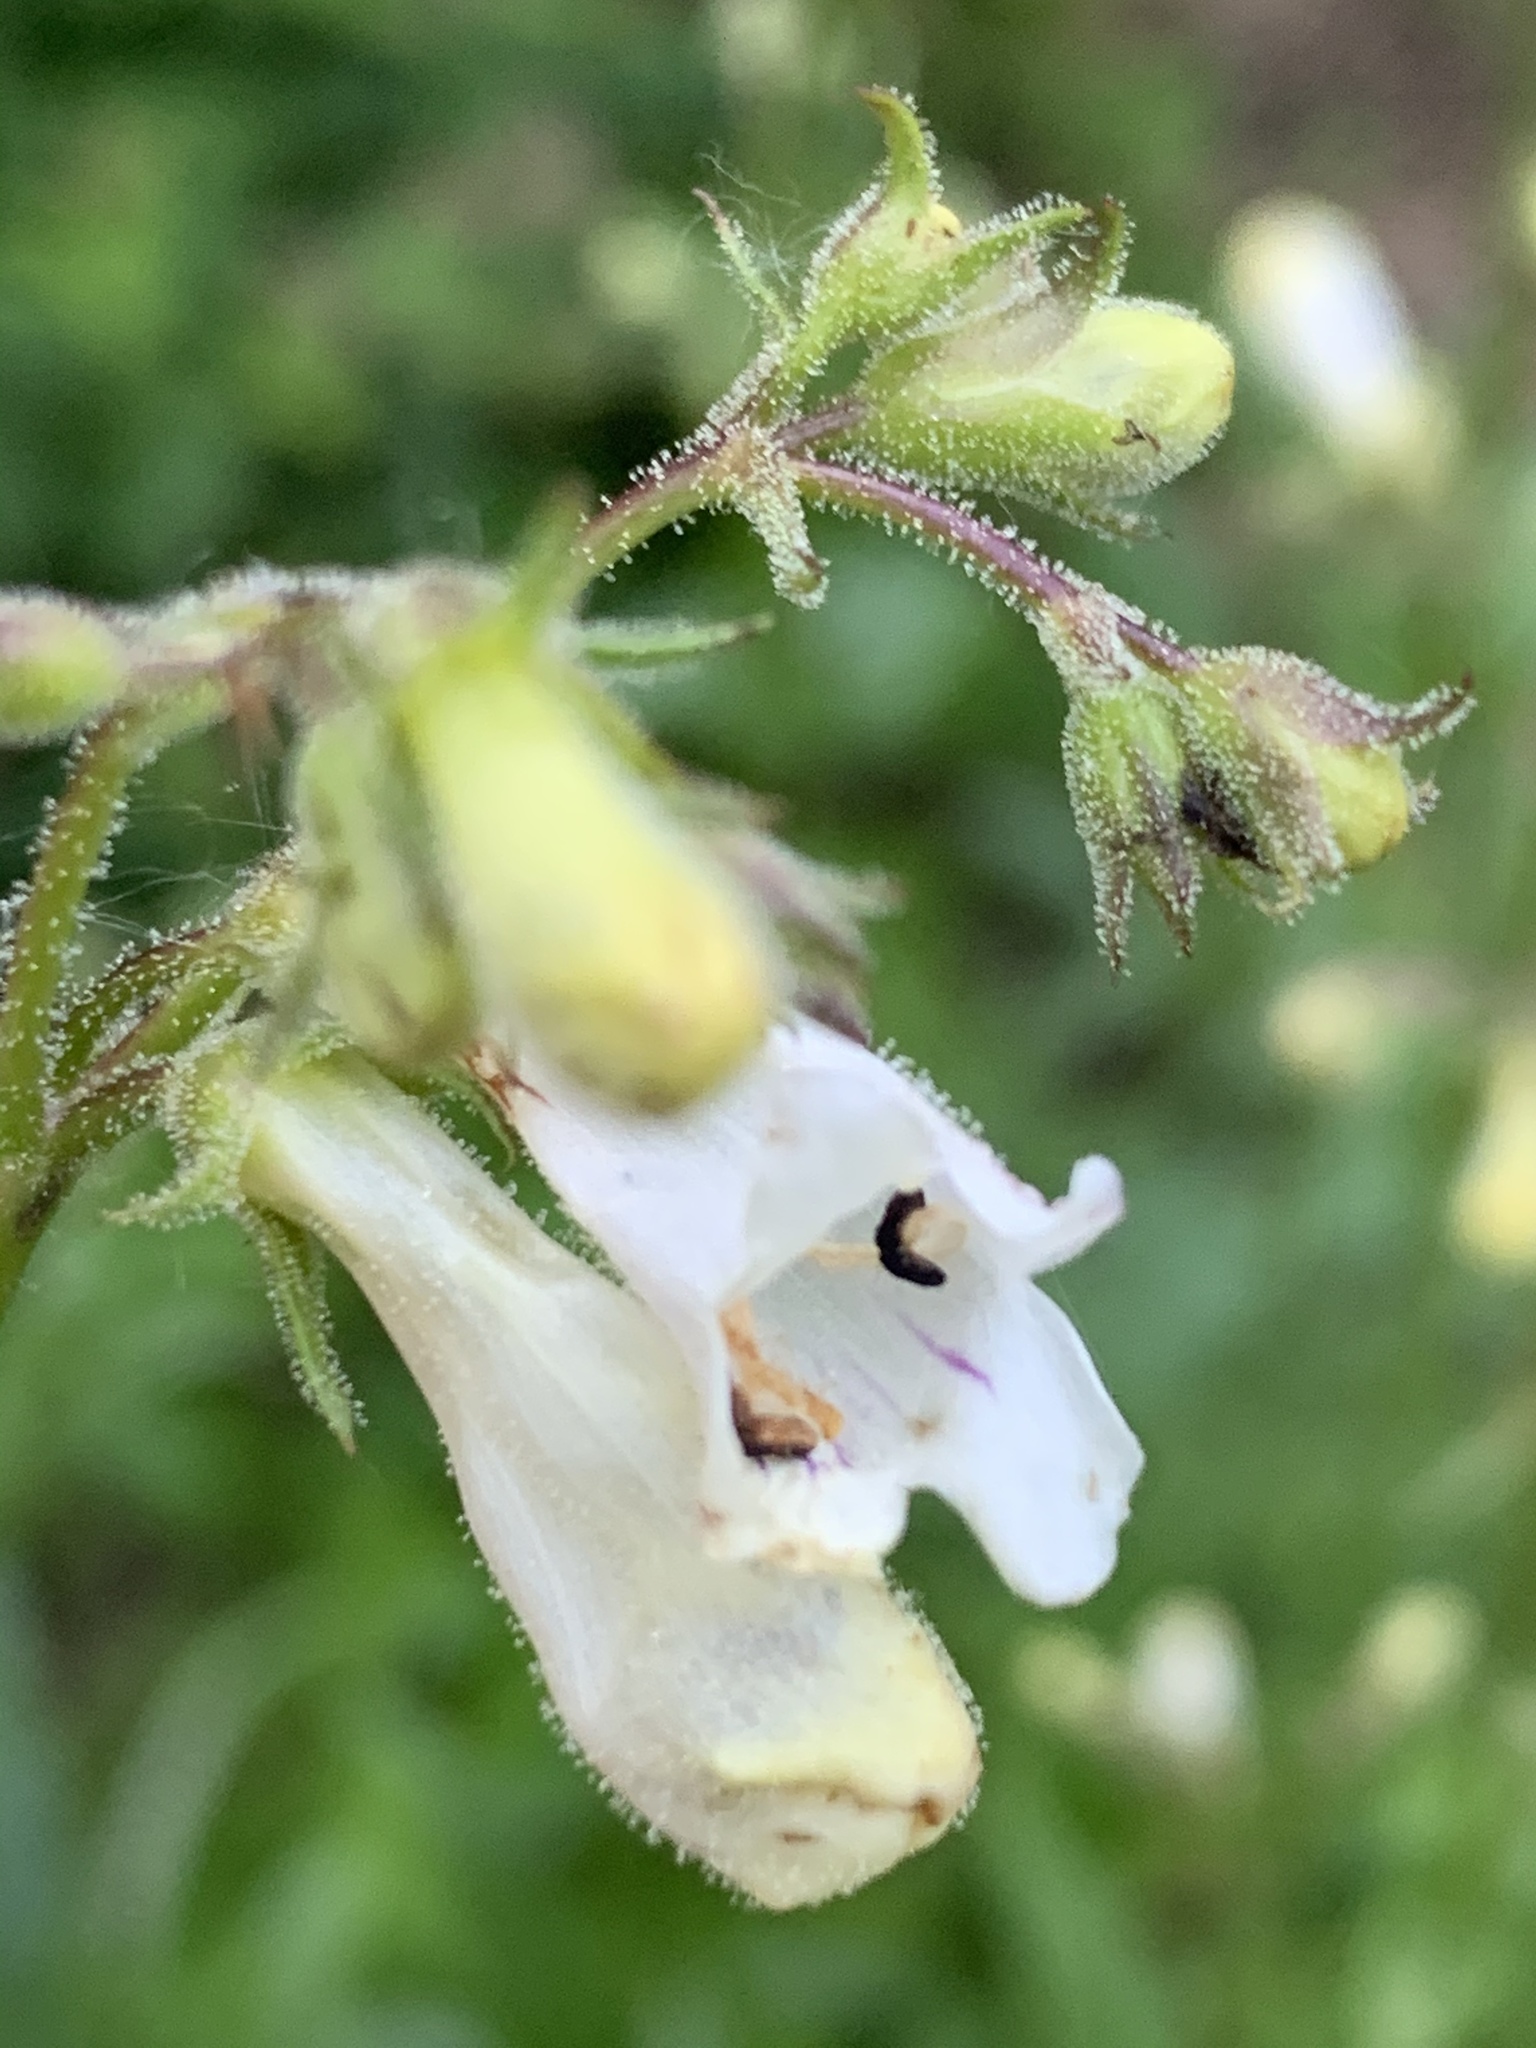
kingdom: Plantae
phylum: Tracheophyta
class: Magnoliopsida
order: Lamiales
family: Plantaginaceae
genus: Penstemon
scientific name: Penstemon digitalis
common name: Foxglove beardtongue
